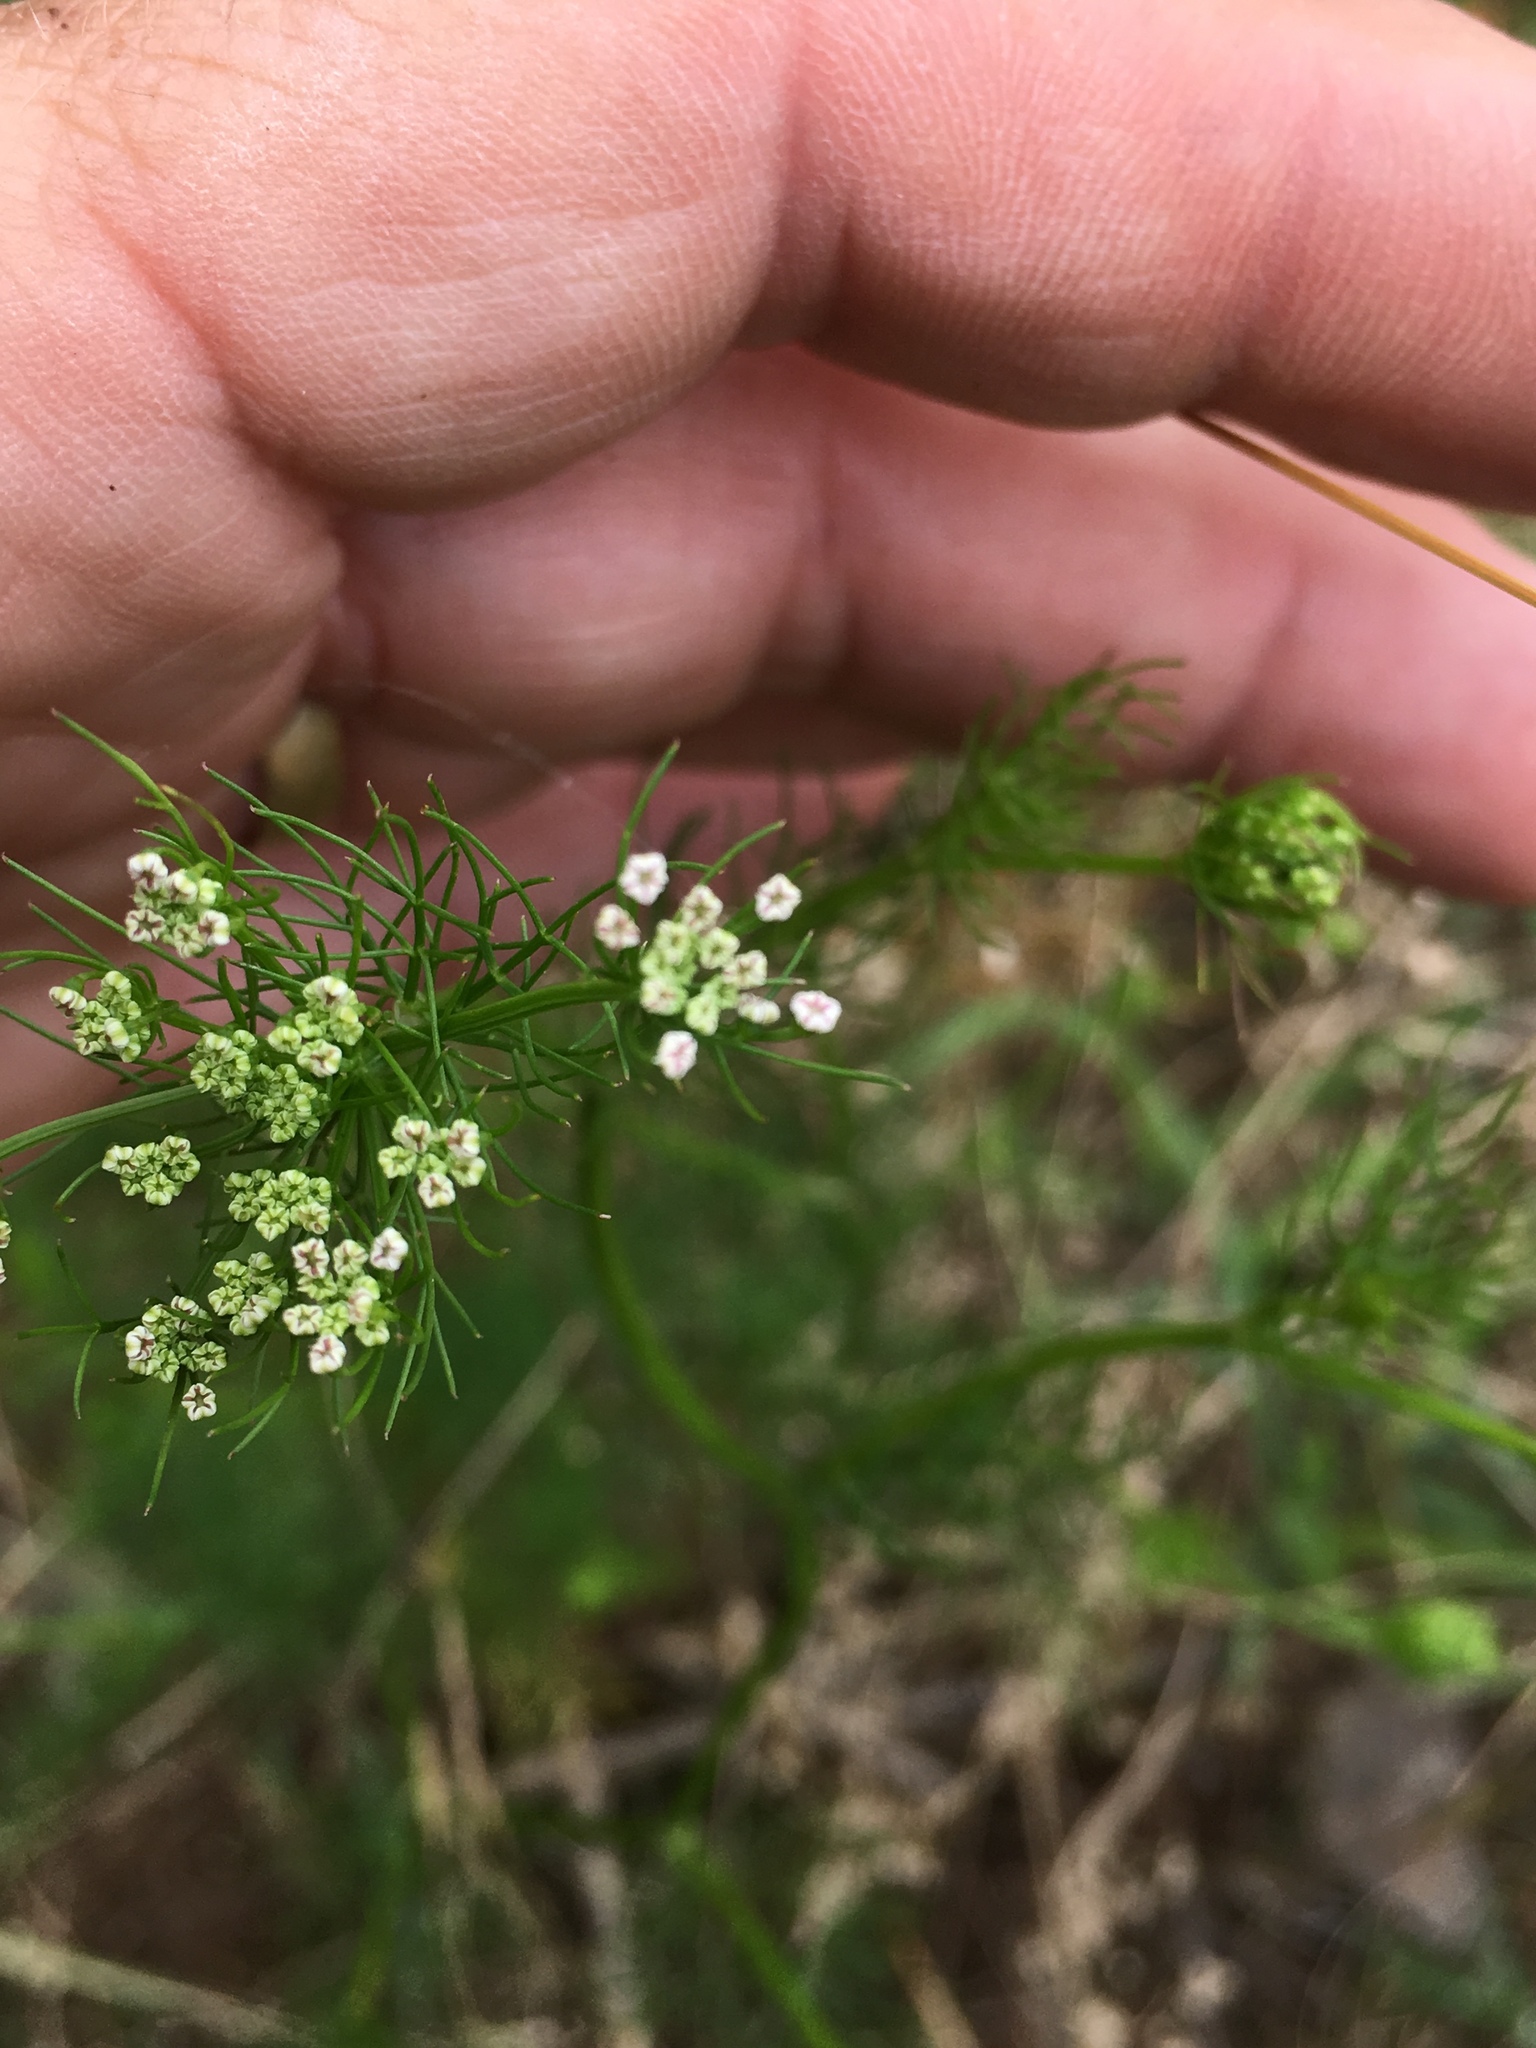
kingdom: Plantae
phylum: Tracheophyta
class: Magnoliopsida
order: Apiales
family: Apiaceae
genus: Ptilimnium
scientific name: Ptilimnium capillaceum
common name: Herbwilliam
